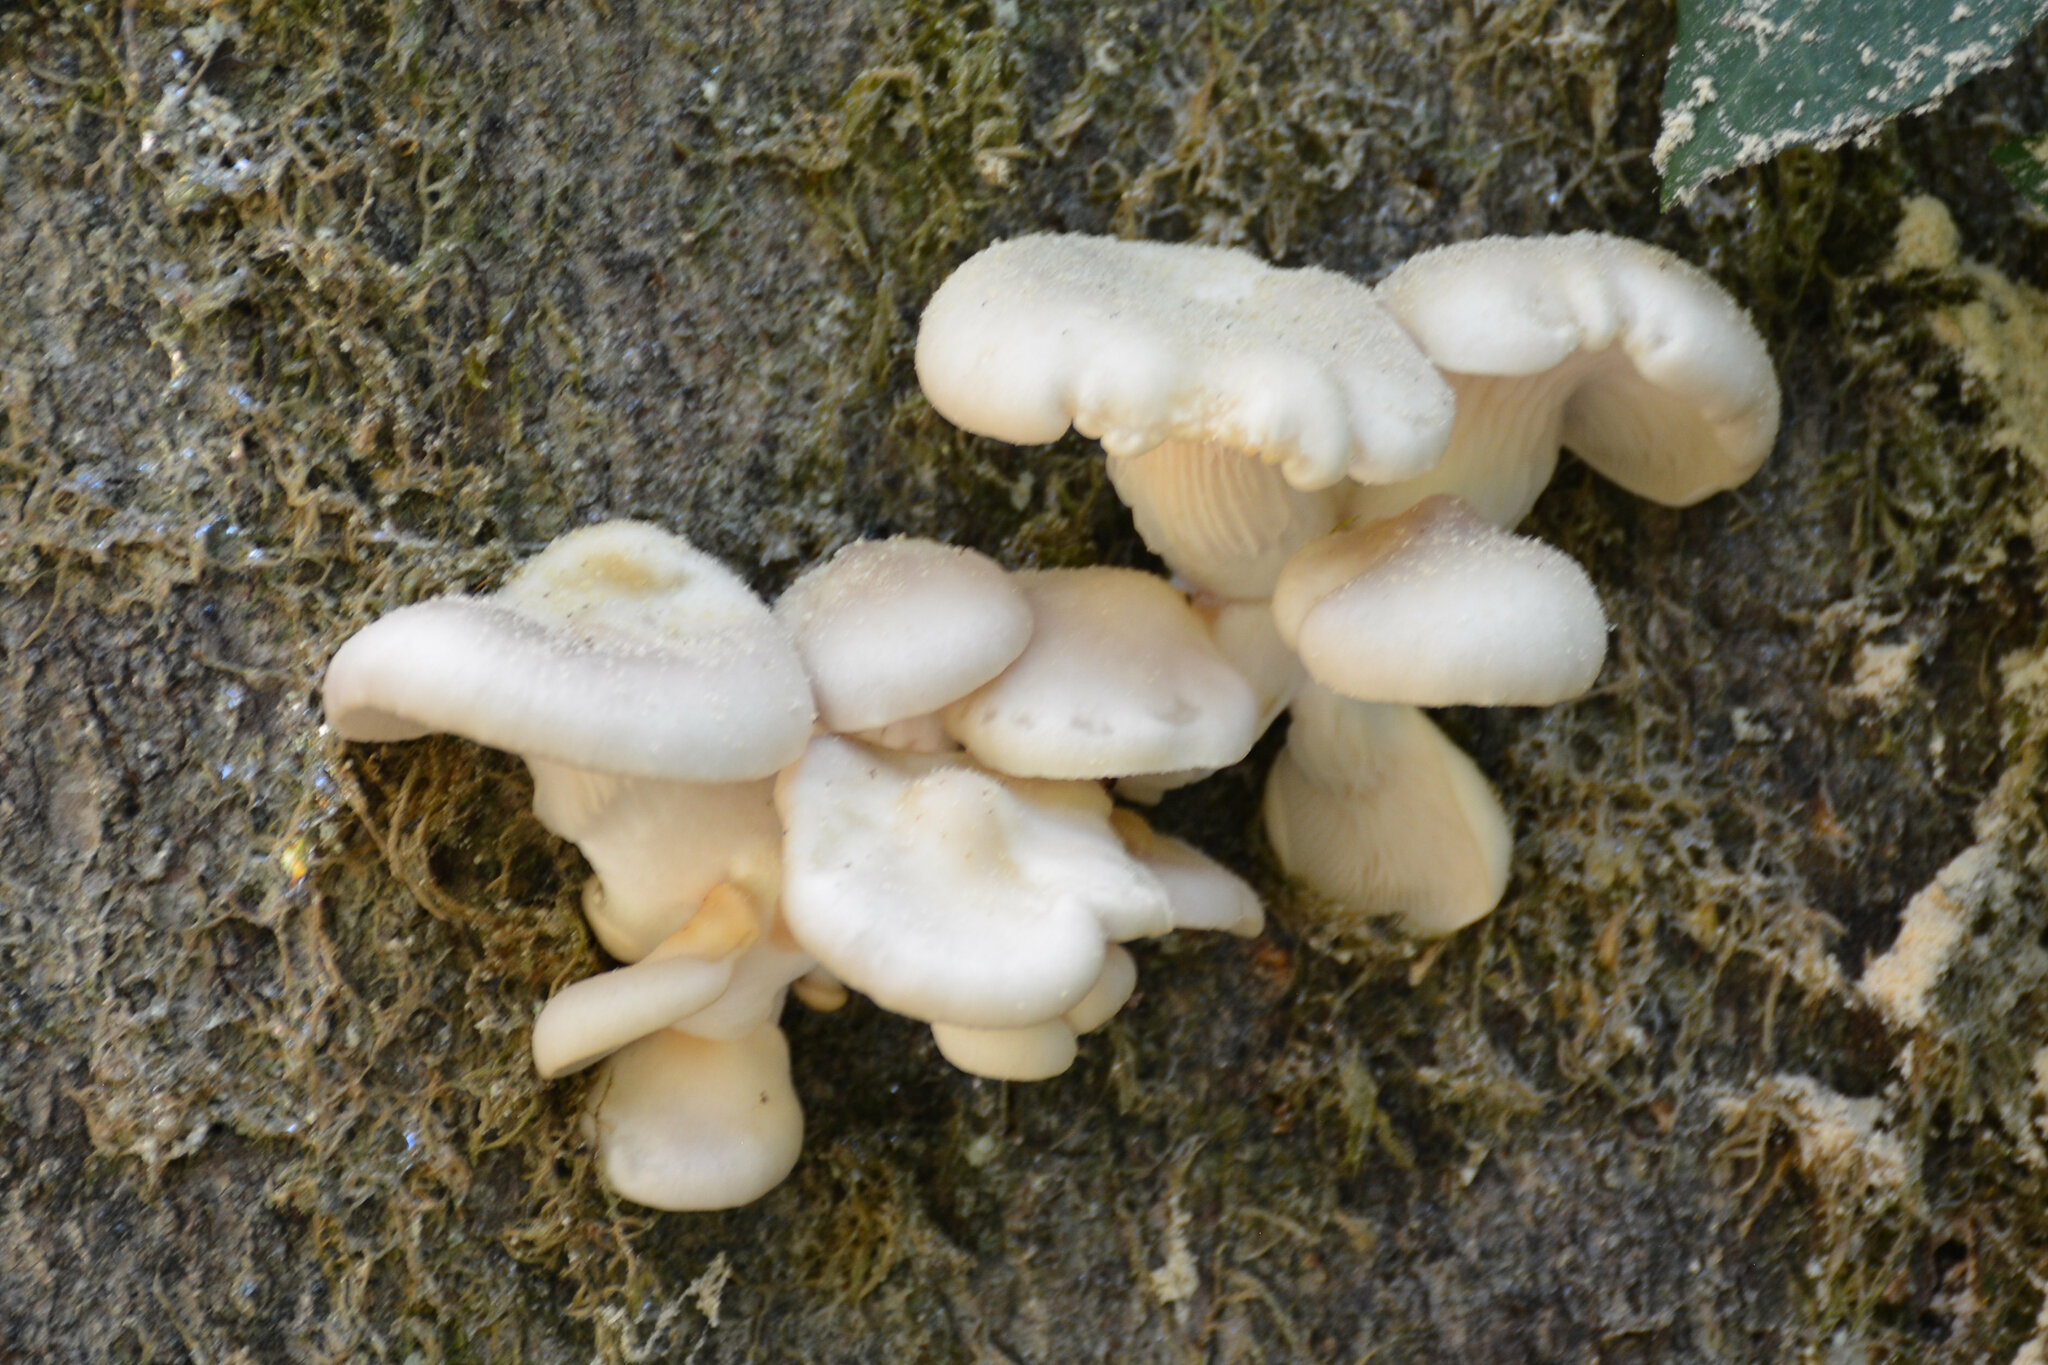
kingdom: Fungi
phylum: Basidiomycota
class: Agaricomycetes
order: Agaricales
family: Pleurotaceae
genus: Pleurotus
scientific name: Pleurotus pulmonarius
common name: Pale oyster
